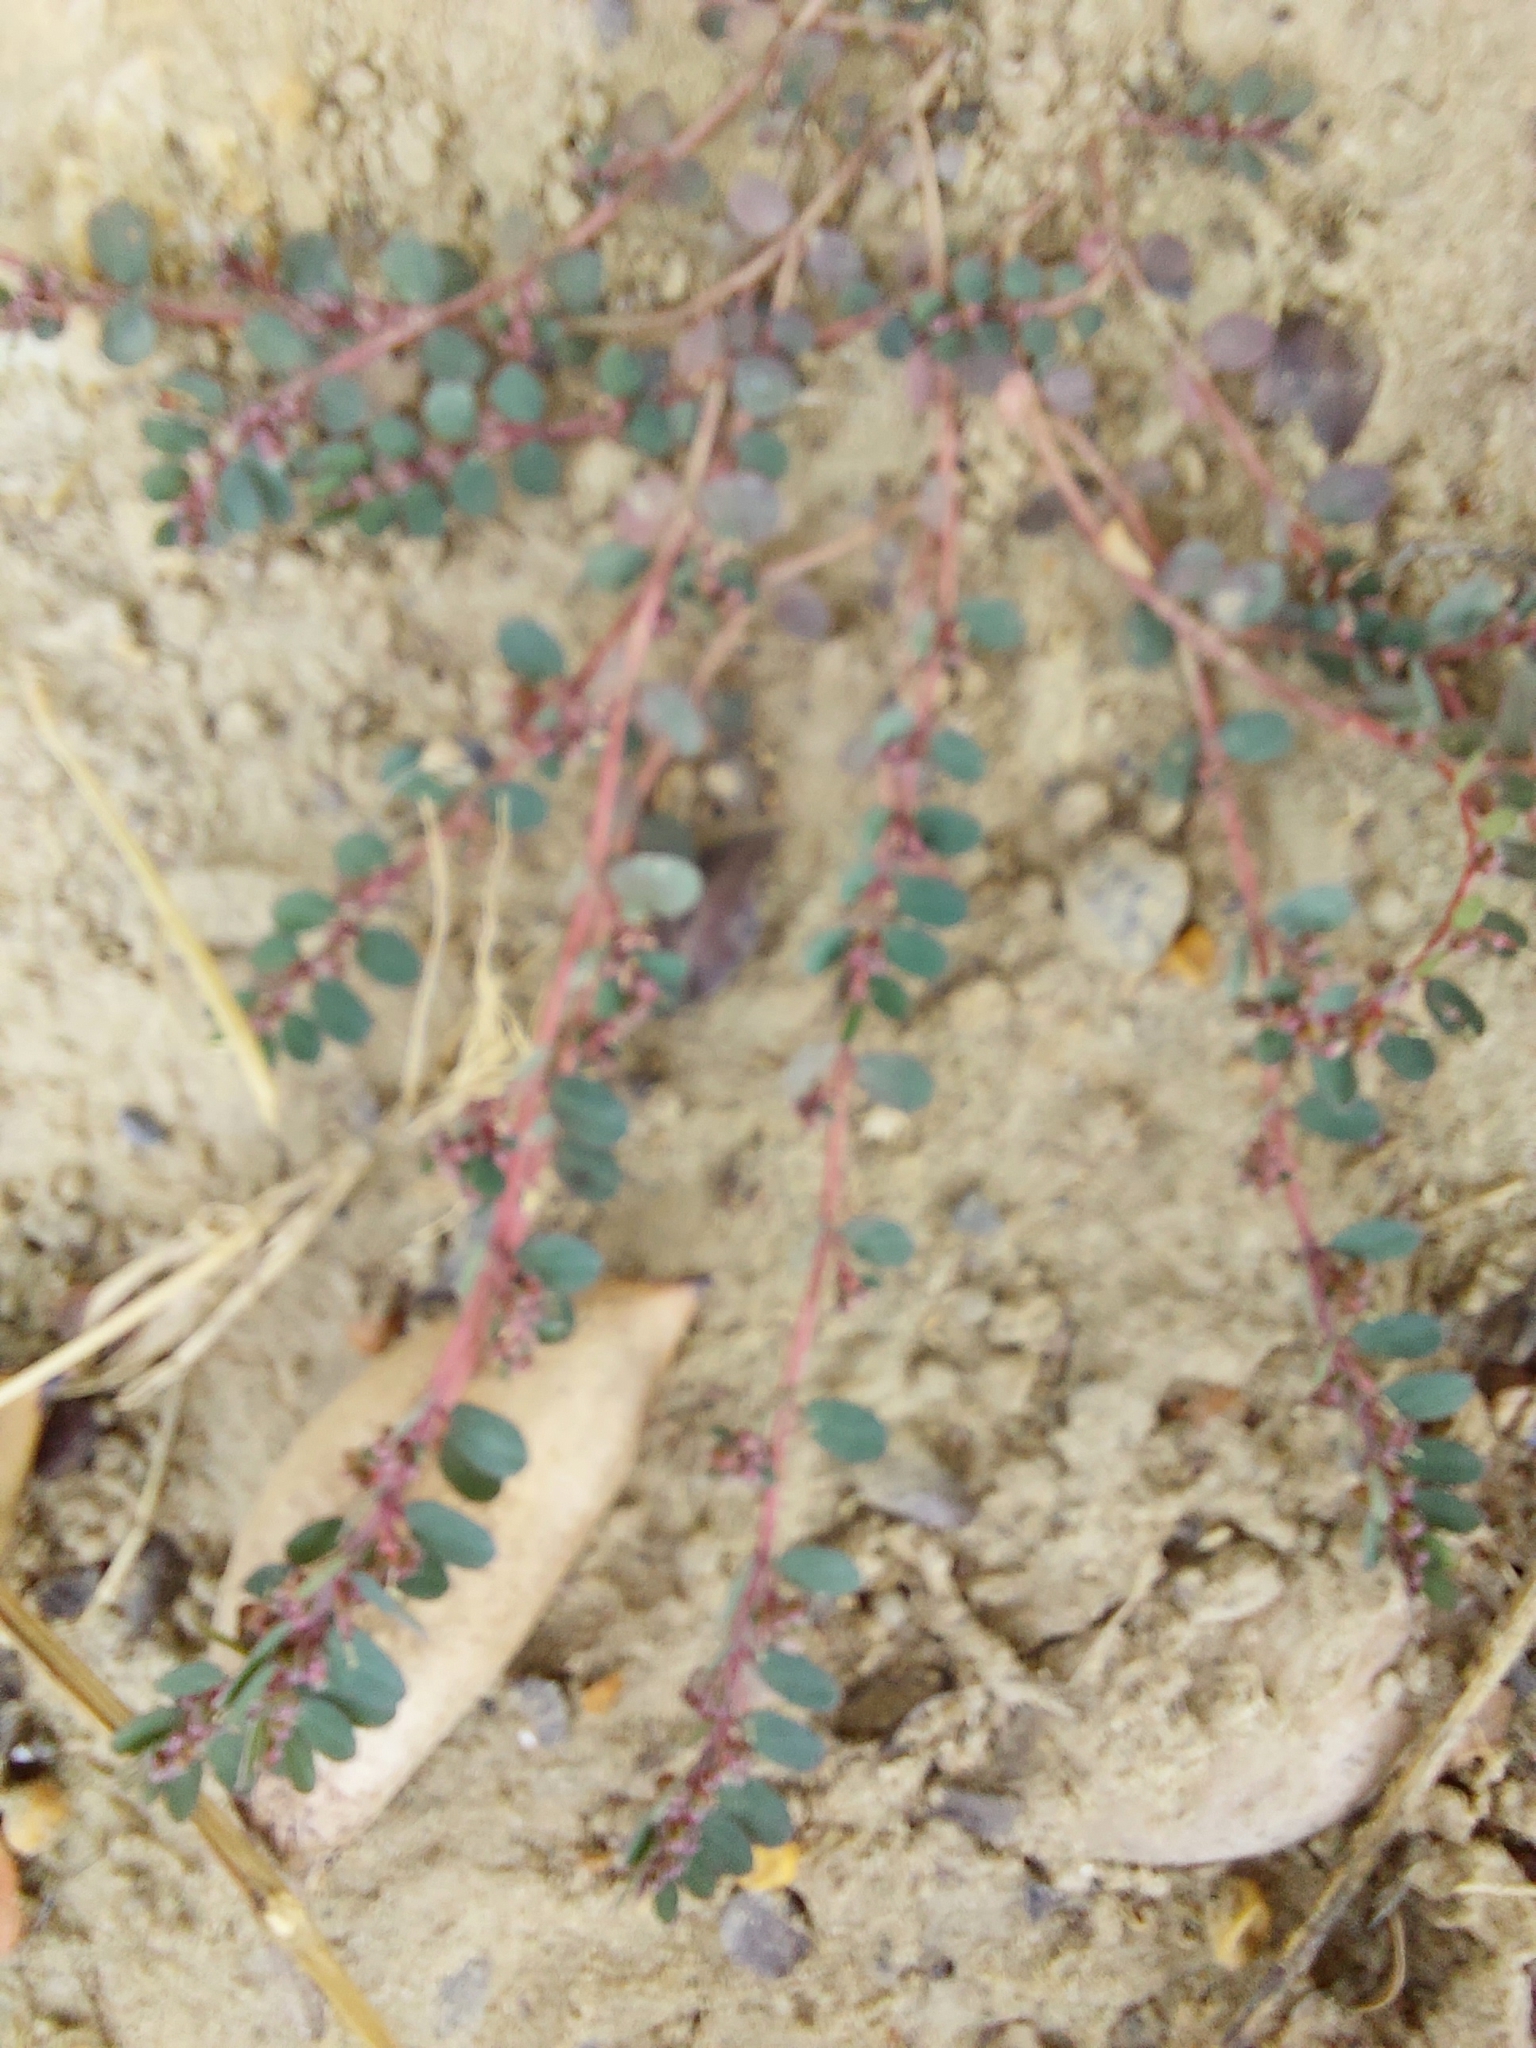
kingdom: Plantae
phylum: Tracheophyta
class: Magnoliopsida
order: Malpighiales
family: Euphorbiaceae
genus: Euphorbia
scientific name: Euphorbia prostrata
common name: Prostrate sandmat
